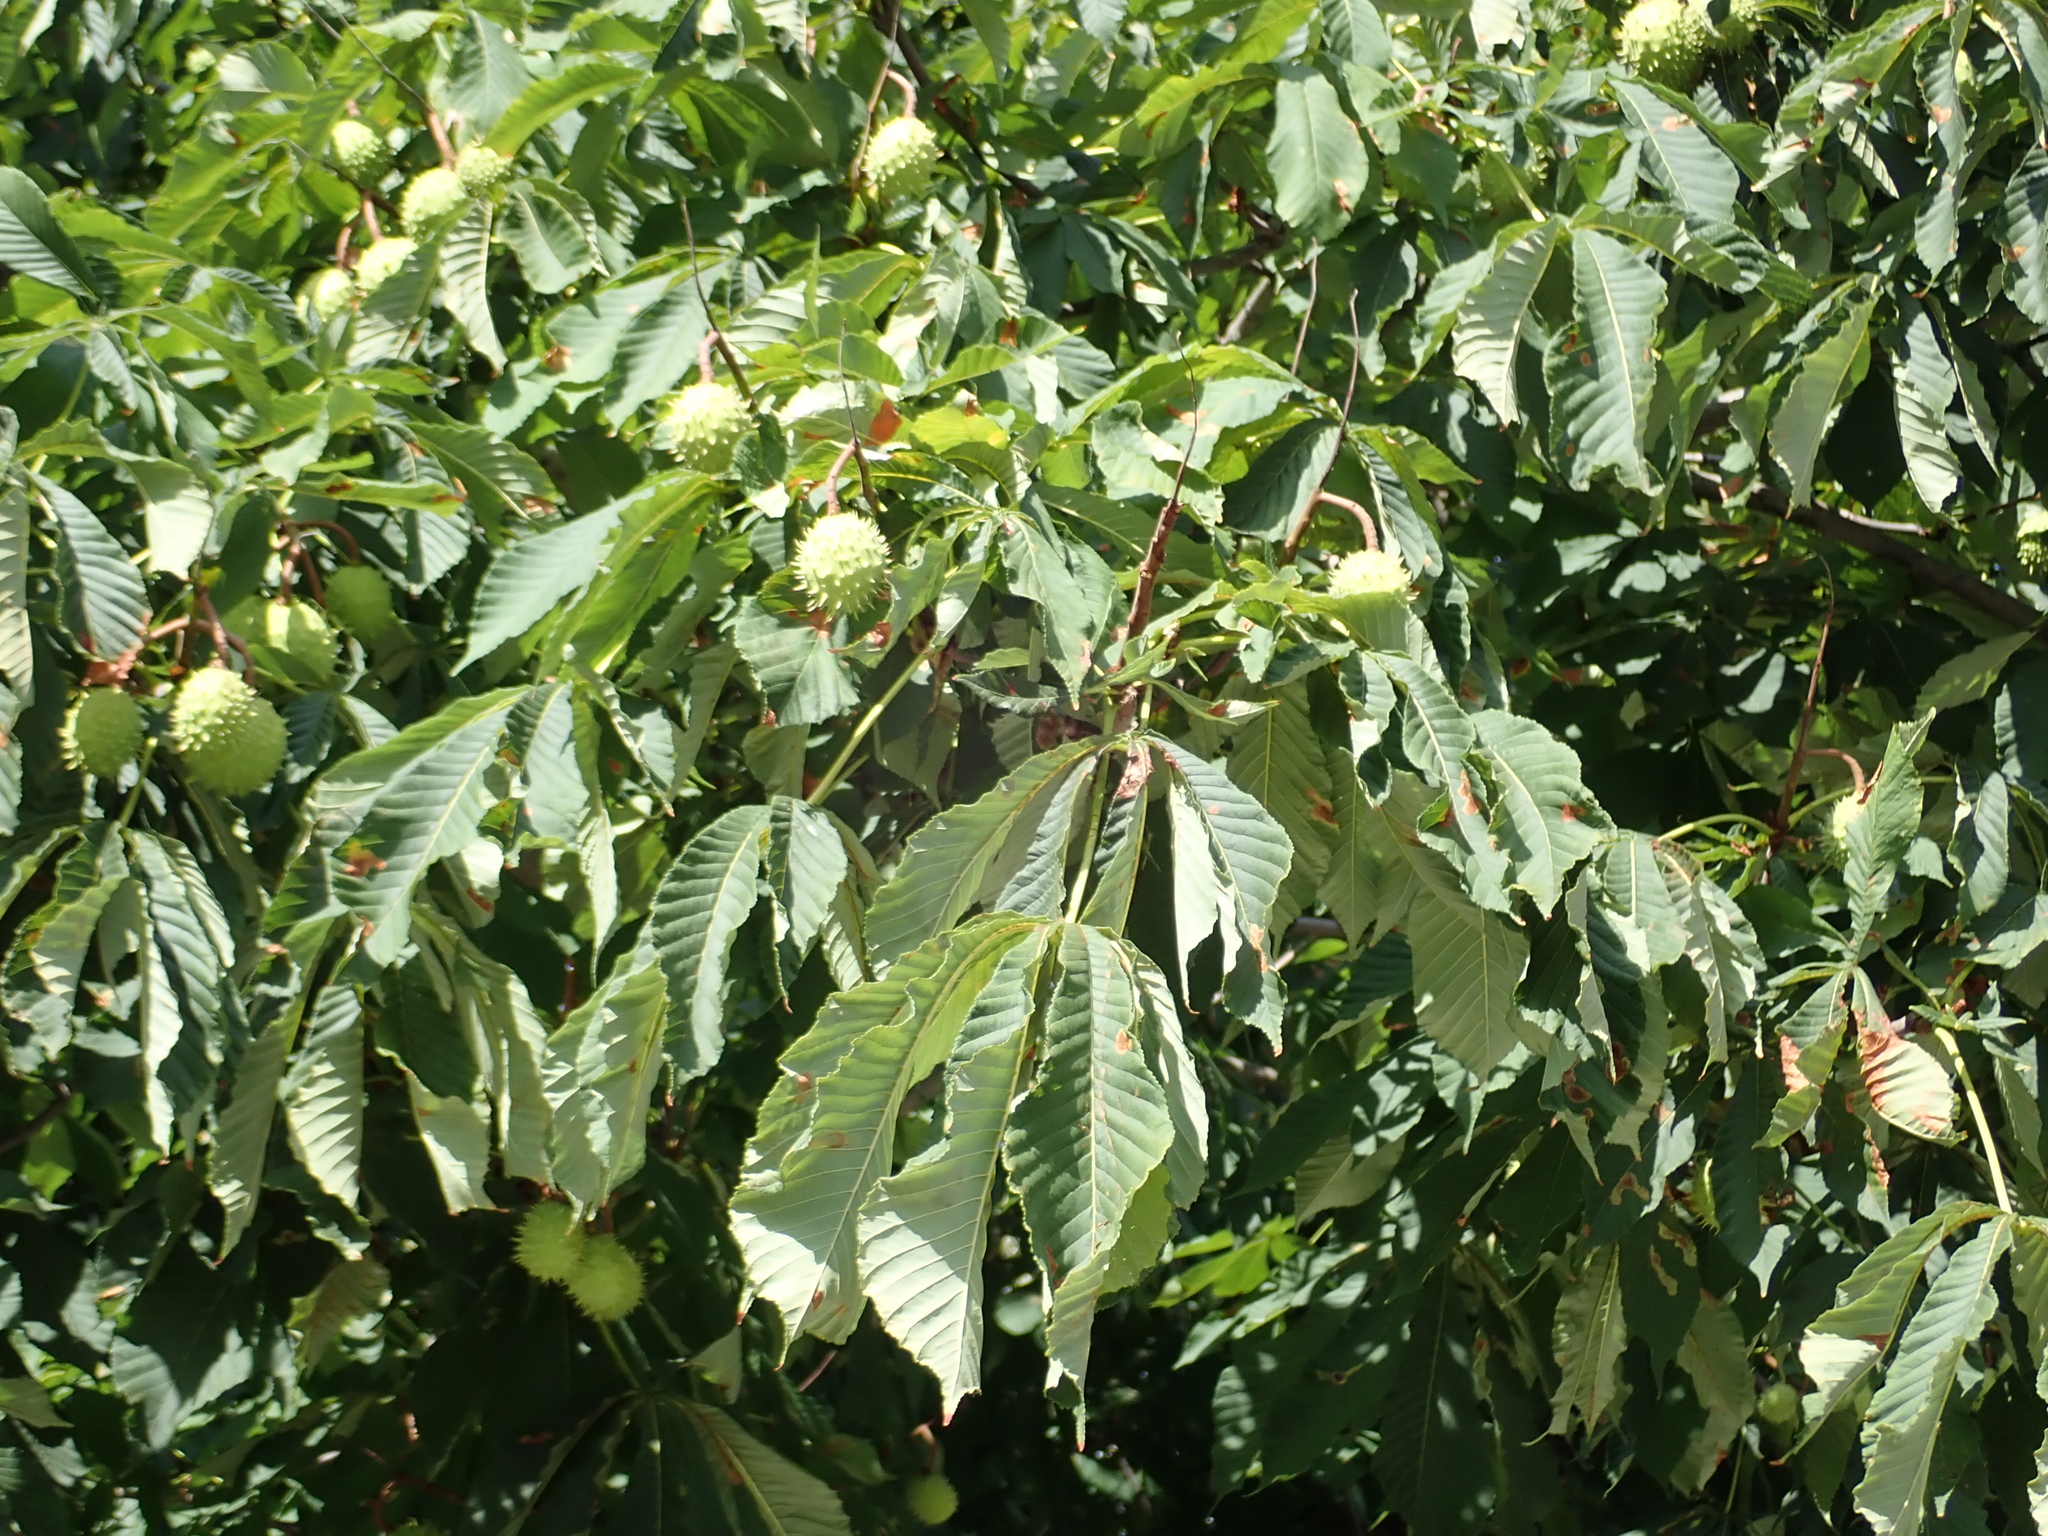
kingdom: Plantae
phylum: Tracheophyta
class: Magnoliopsida
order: Sapindales
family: Sapindaceae
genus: Aesculus
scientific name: Aesculus hippocastanum
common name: Horse-chestnut
